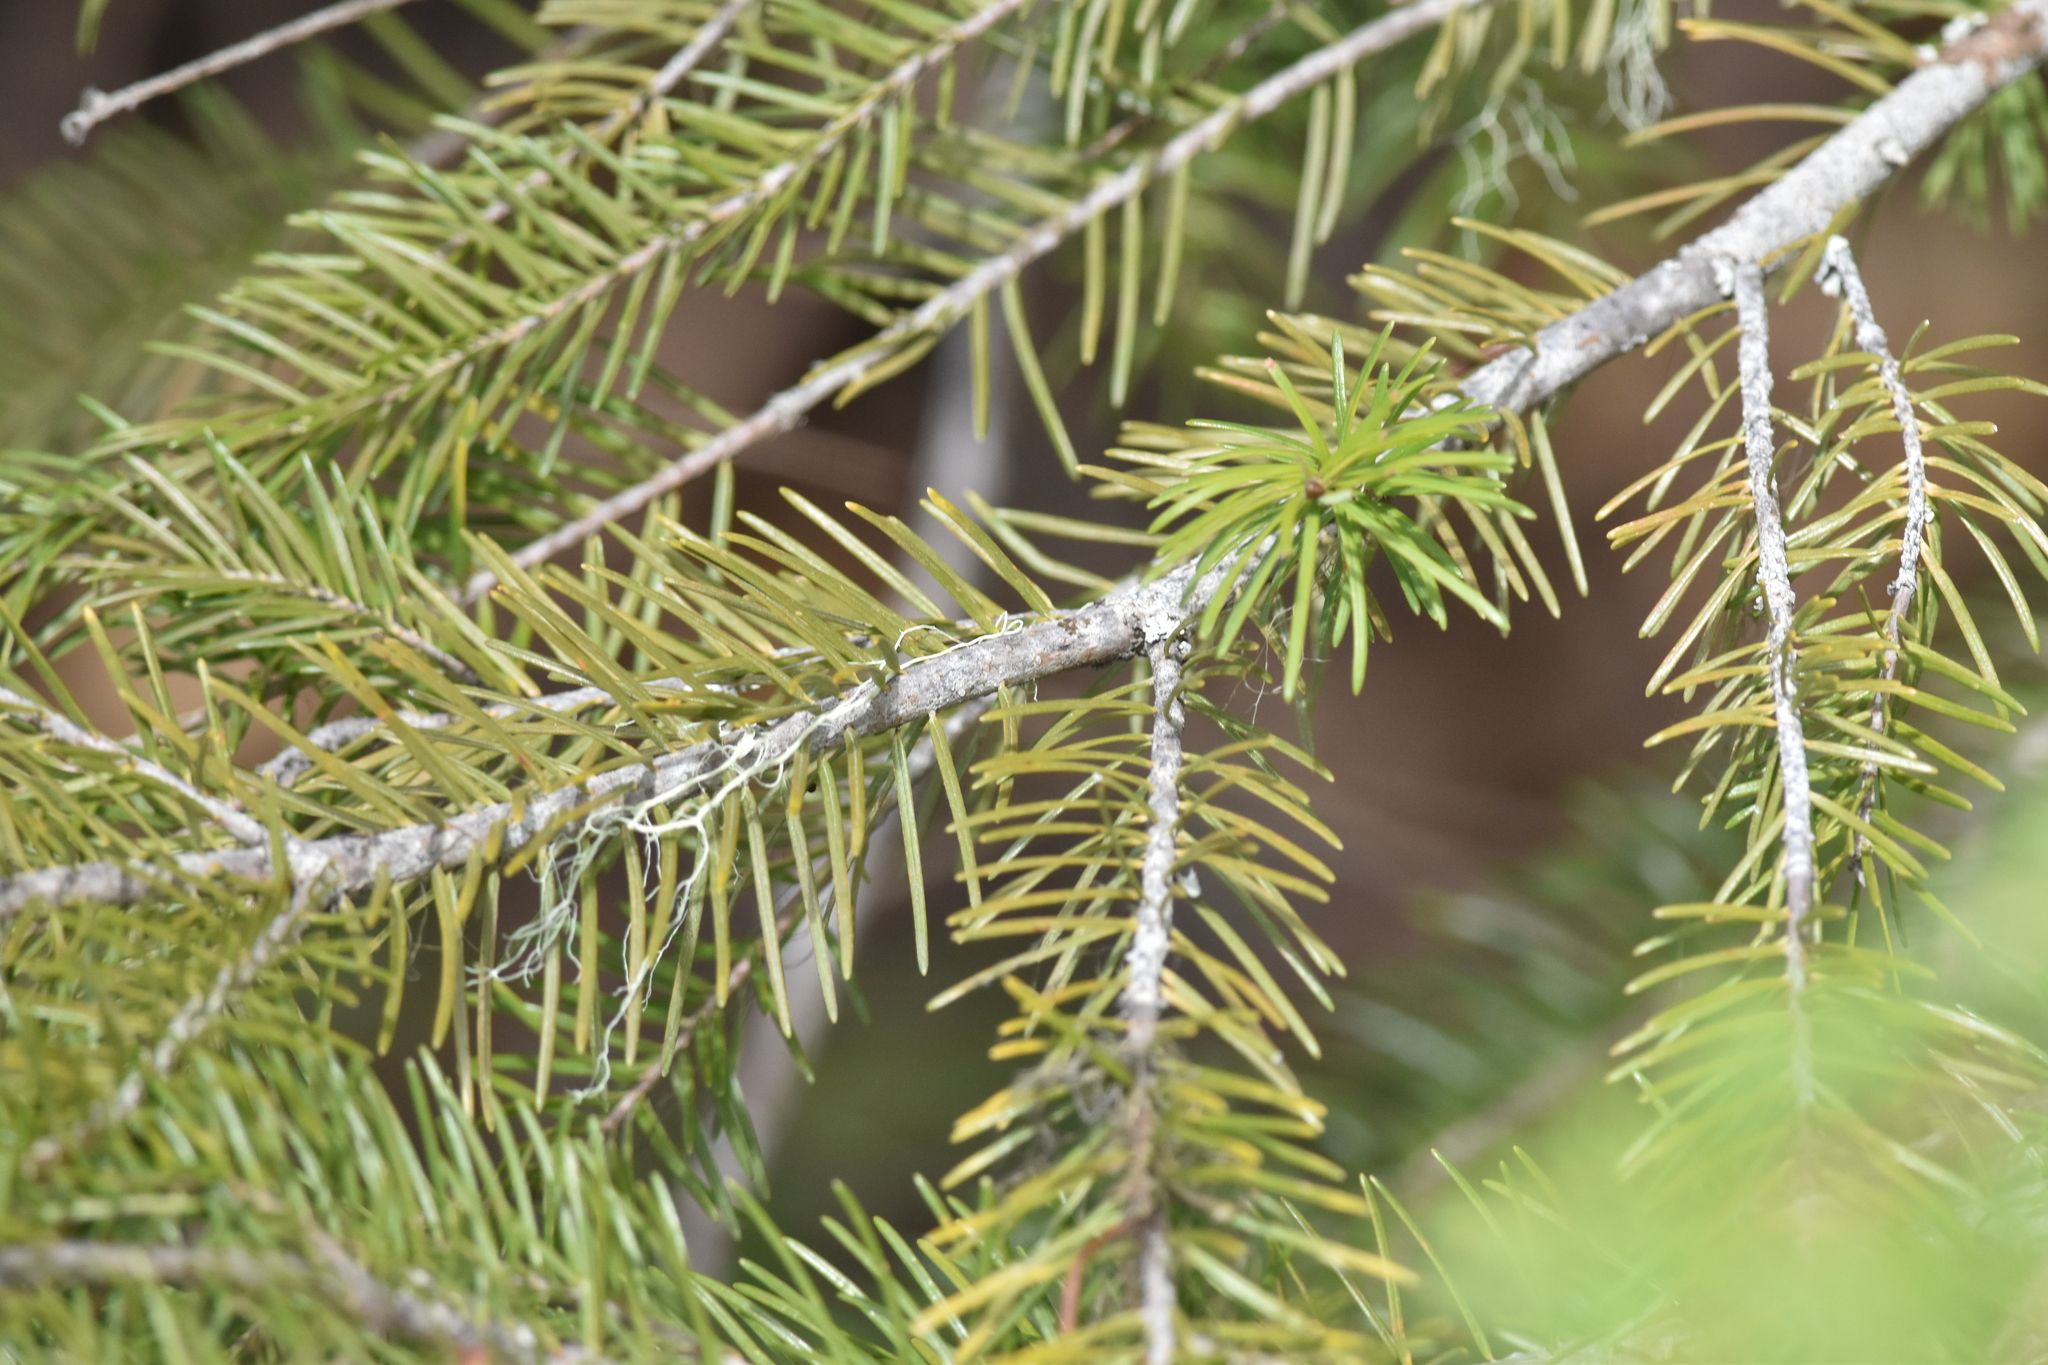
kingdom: Plantae
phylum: Tracheophyta
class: Pinopsida
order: Pinales
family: Pinaceae
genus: Pseudotsuga
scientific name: Pseudotsuga menziesii
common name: Douglas fir
